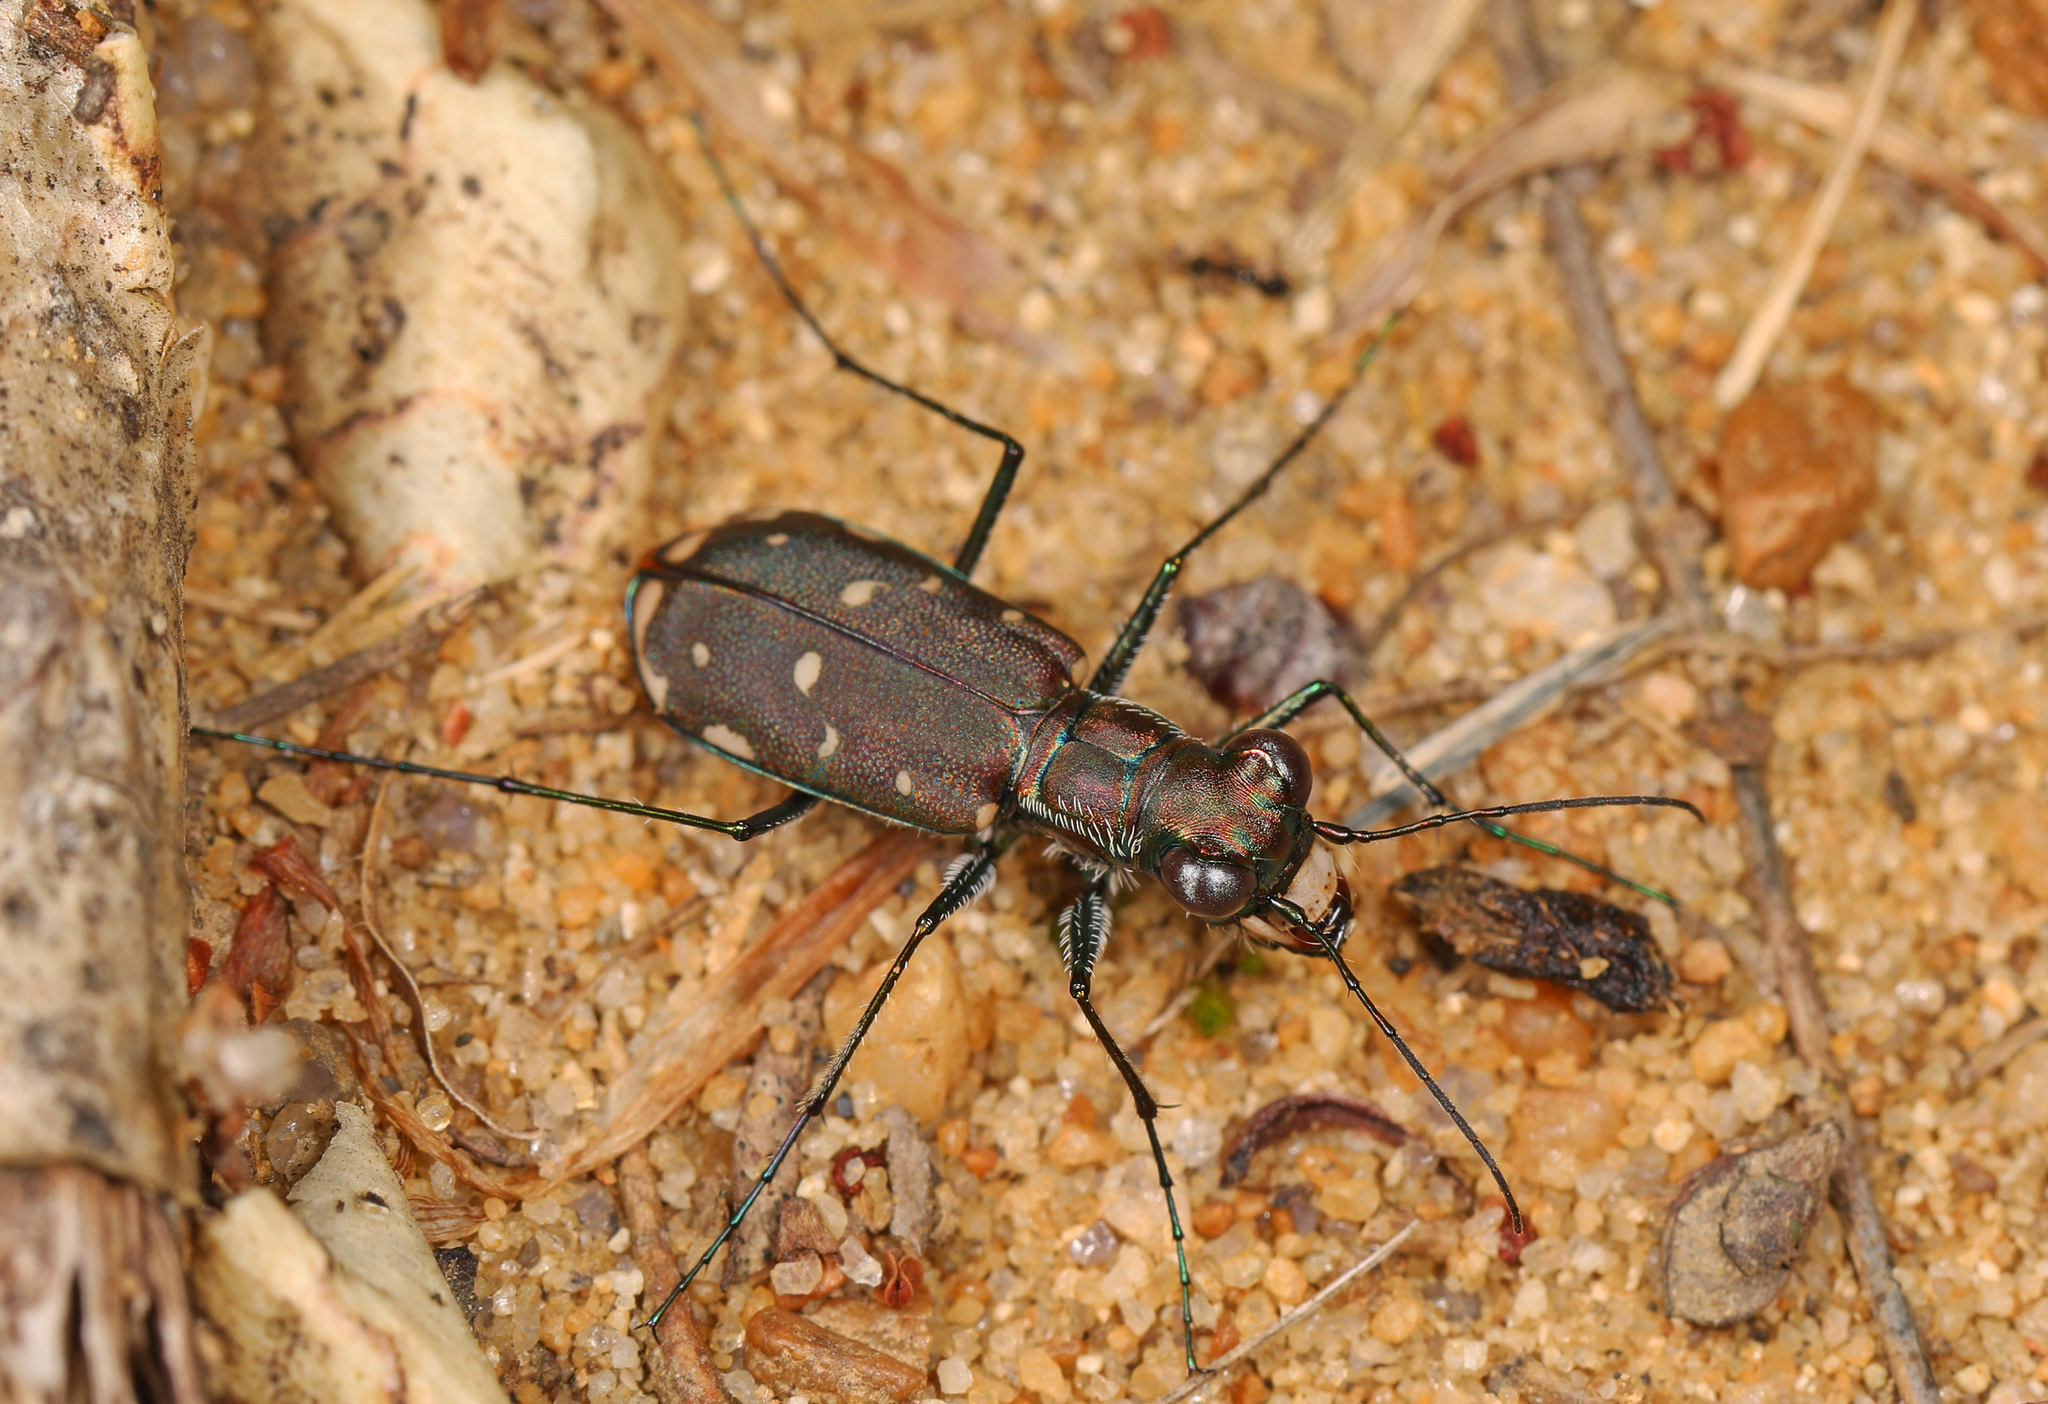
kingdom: Animalia
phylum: Arthropoda
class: Insecta
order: Coleoptera
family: Carabidae
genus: Cicindela
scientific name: Cicindela rufiventris
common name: Eastern red-bellied tiger beetle
